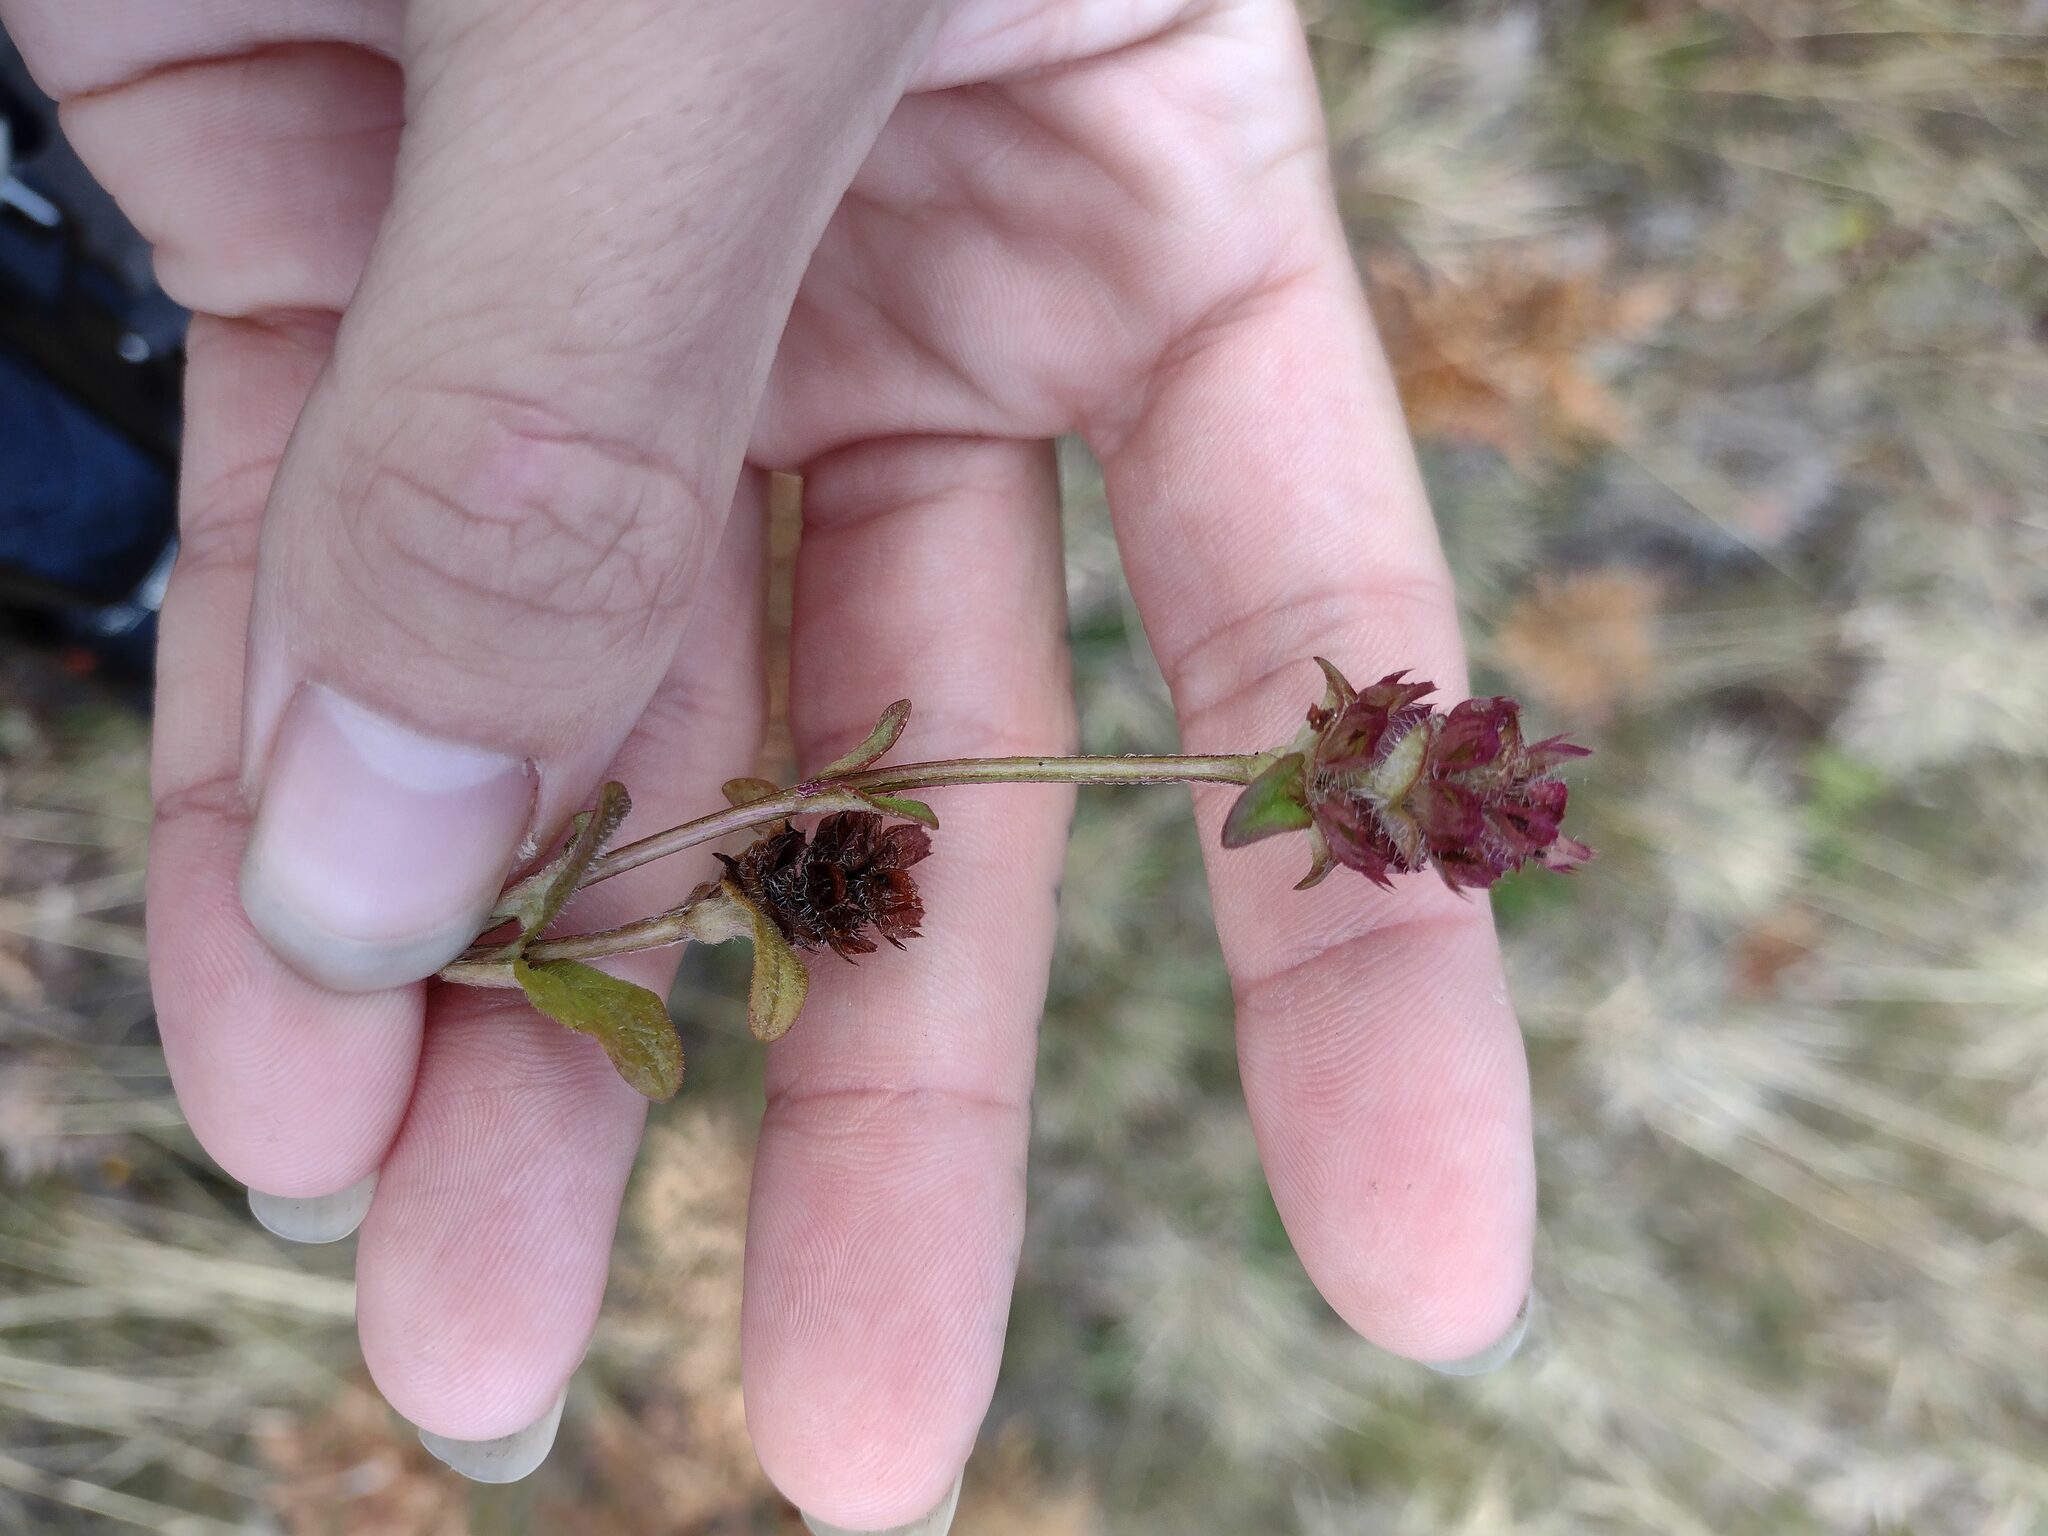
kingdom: Plantae
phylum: Tracheophyta
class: Magnoliopsida
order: Lamiales
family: Lamiaceae
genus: Prunella
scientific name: Prunella vulgaris
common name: Heal-all
